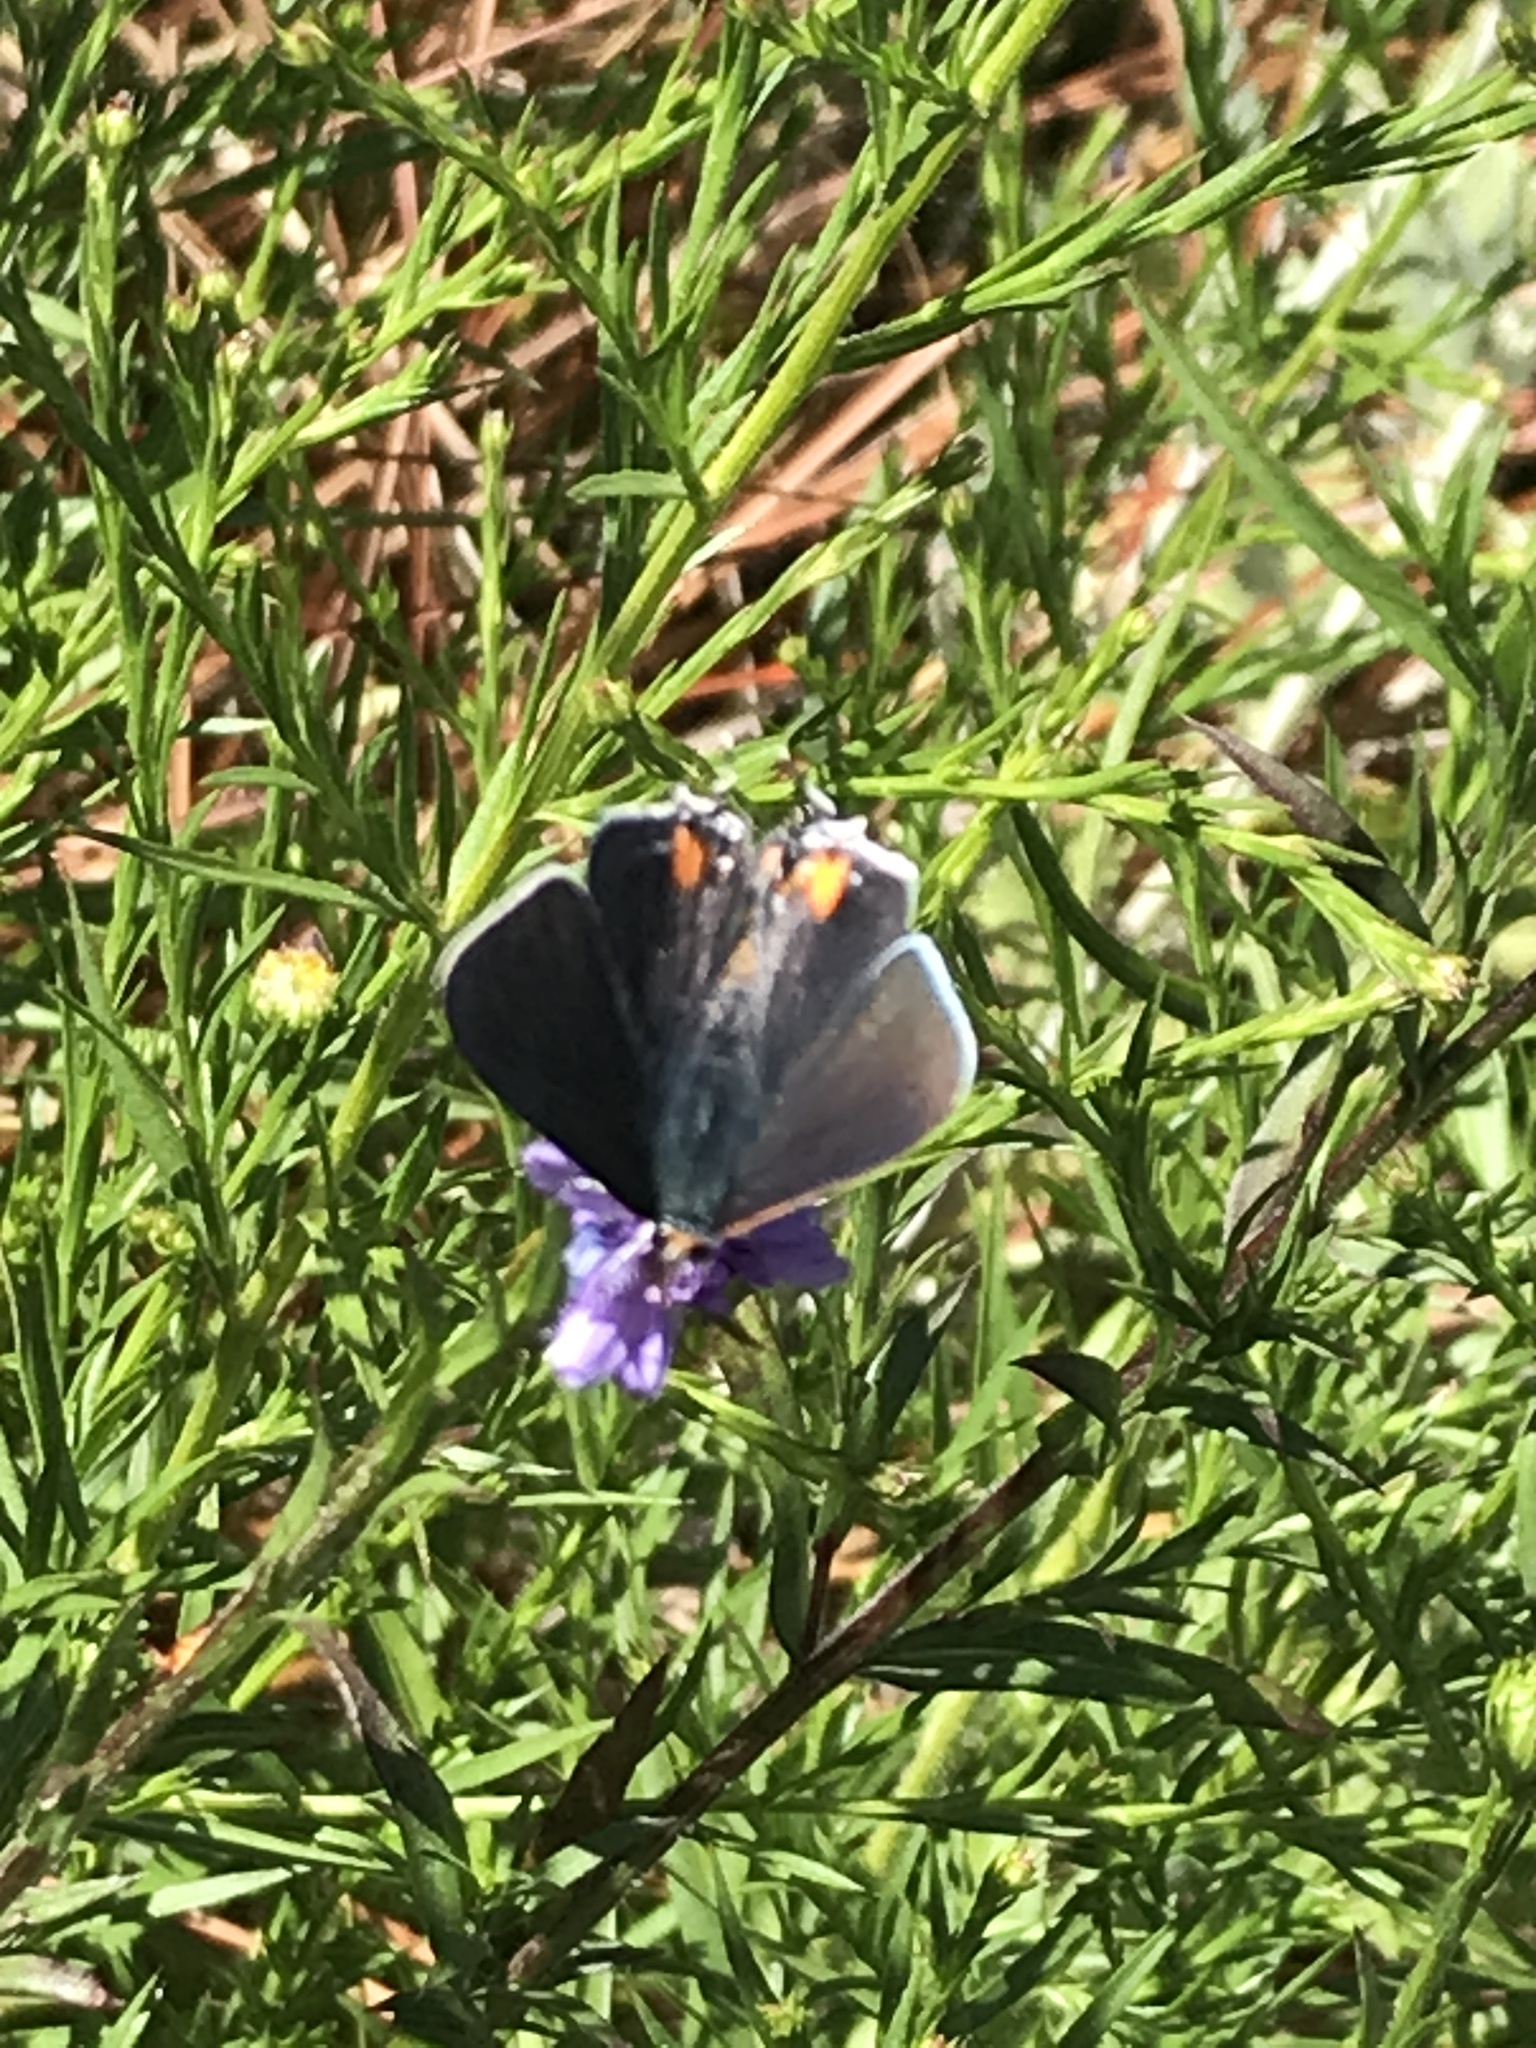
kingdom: Animalia
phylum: Arthropoda
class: Insecta
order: Lepidoptera
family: Lycaenidae
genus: Strymon
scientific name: Strymon melinus
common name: Gray hairstreak
